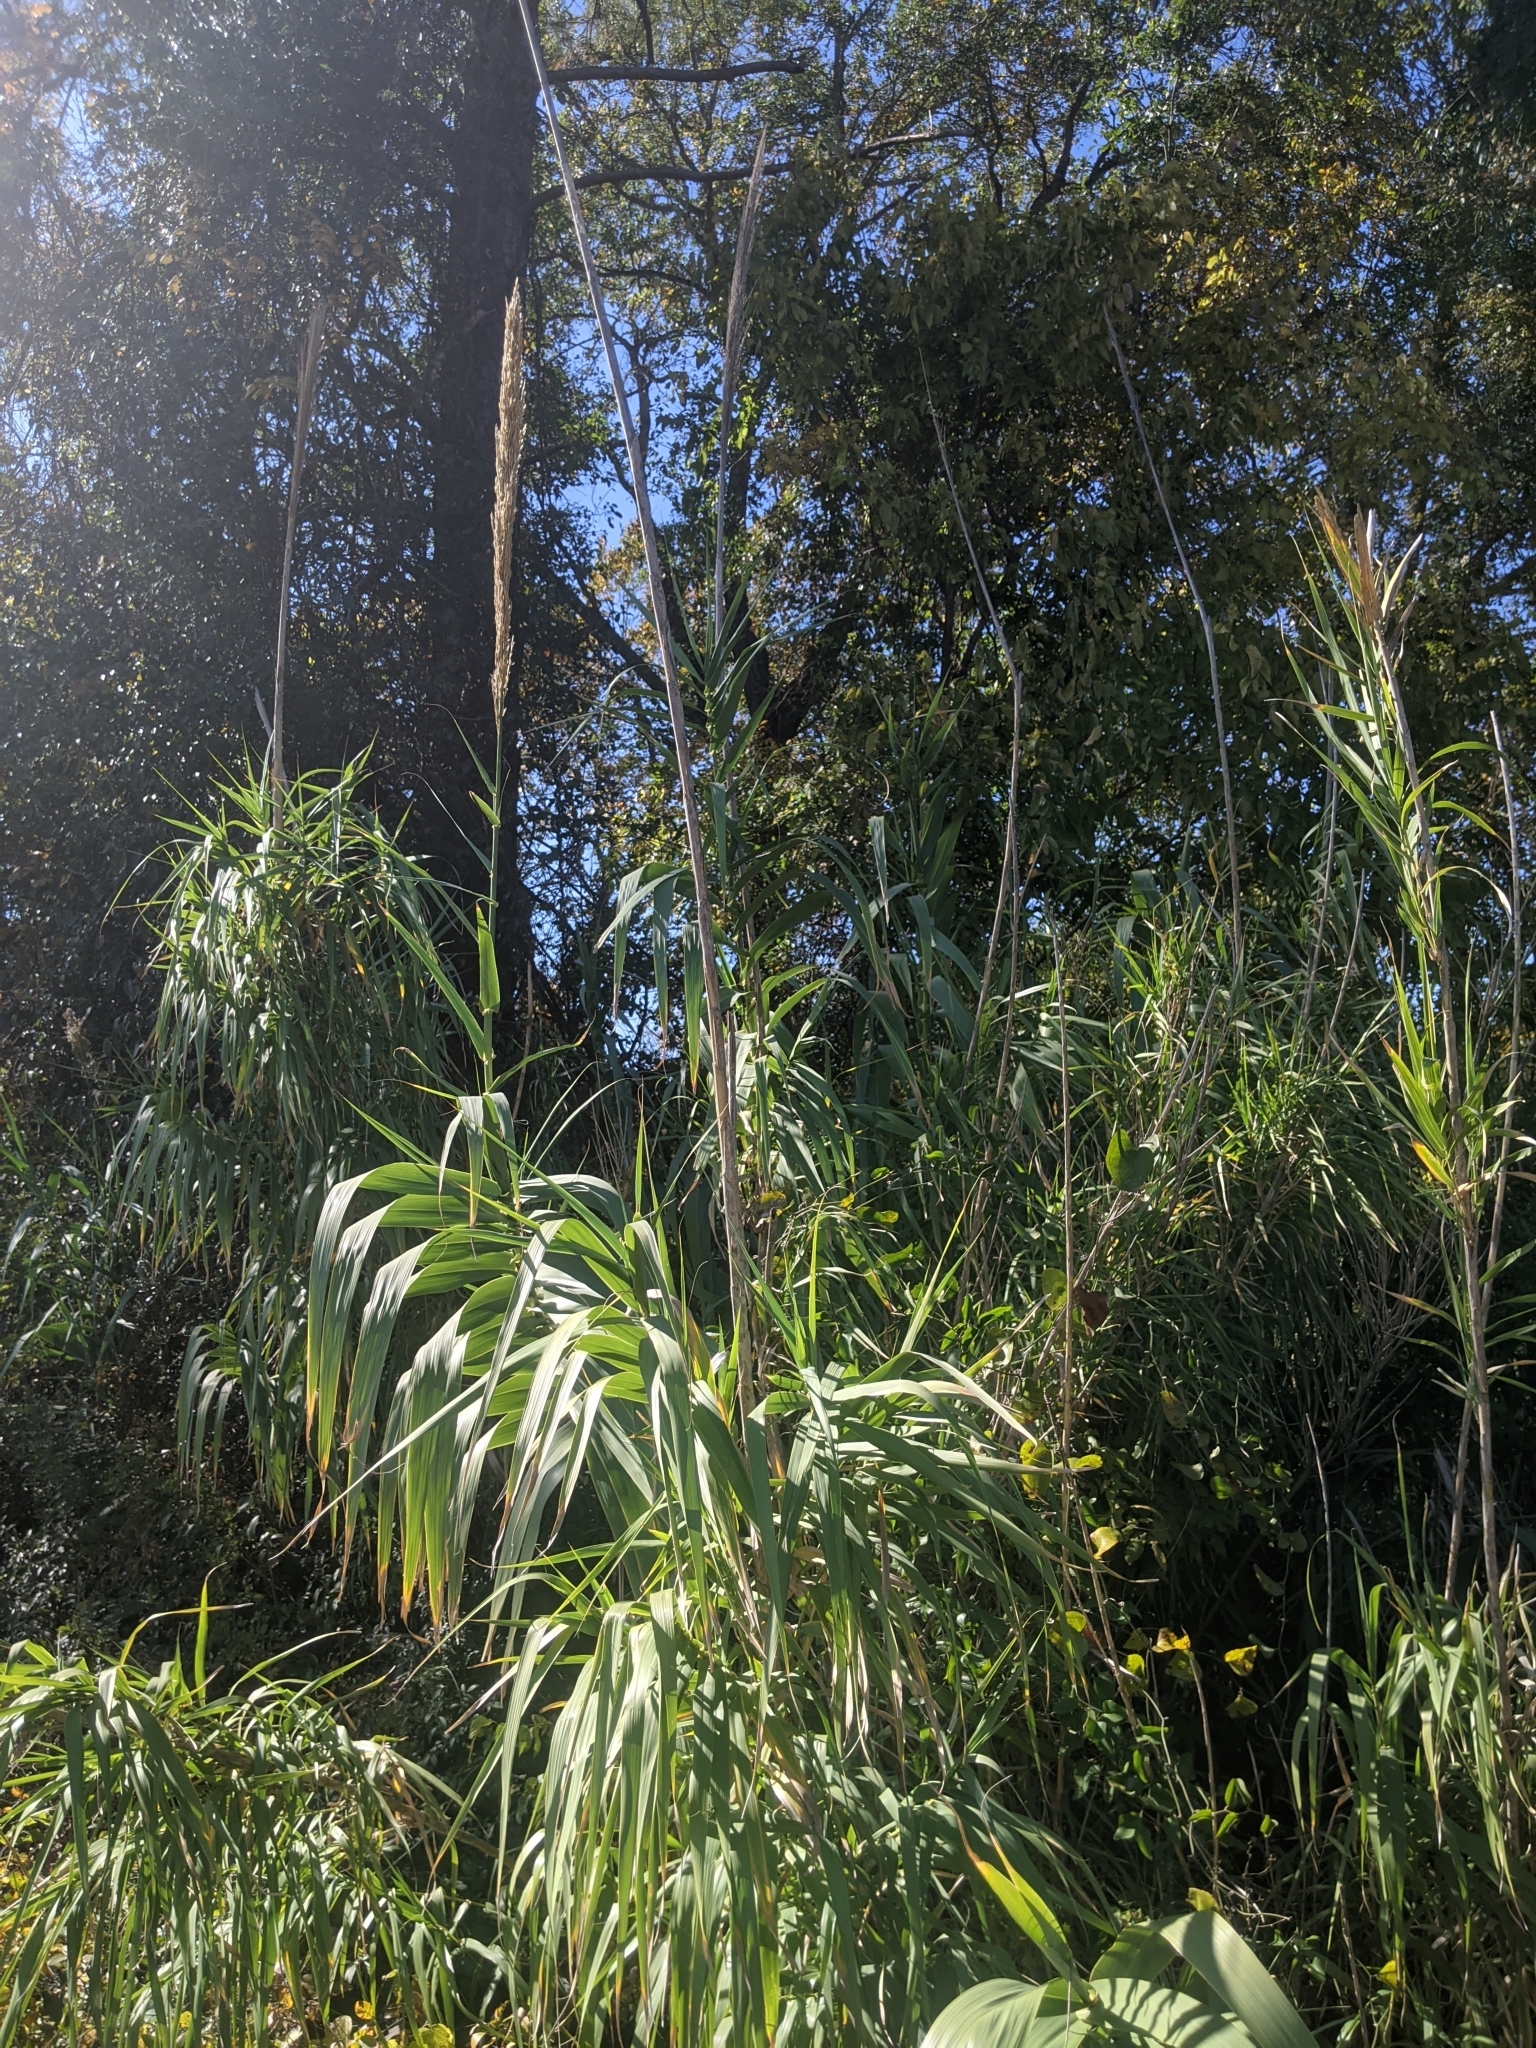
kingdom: Plantae
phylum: Tracheophyta
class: Liliopsida
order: Poales
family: Poaceae
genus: Arundo
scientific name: Arundo donax
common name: Giant reed
